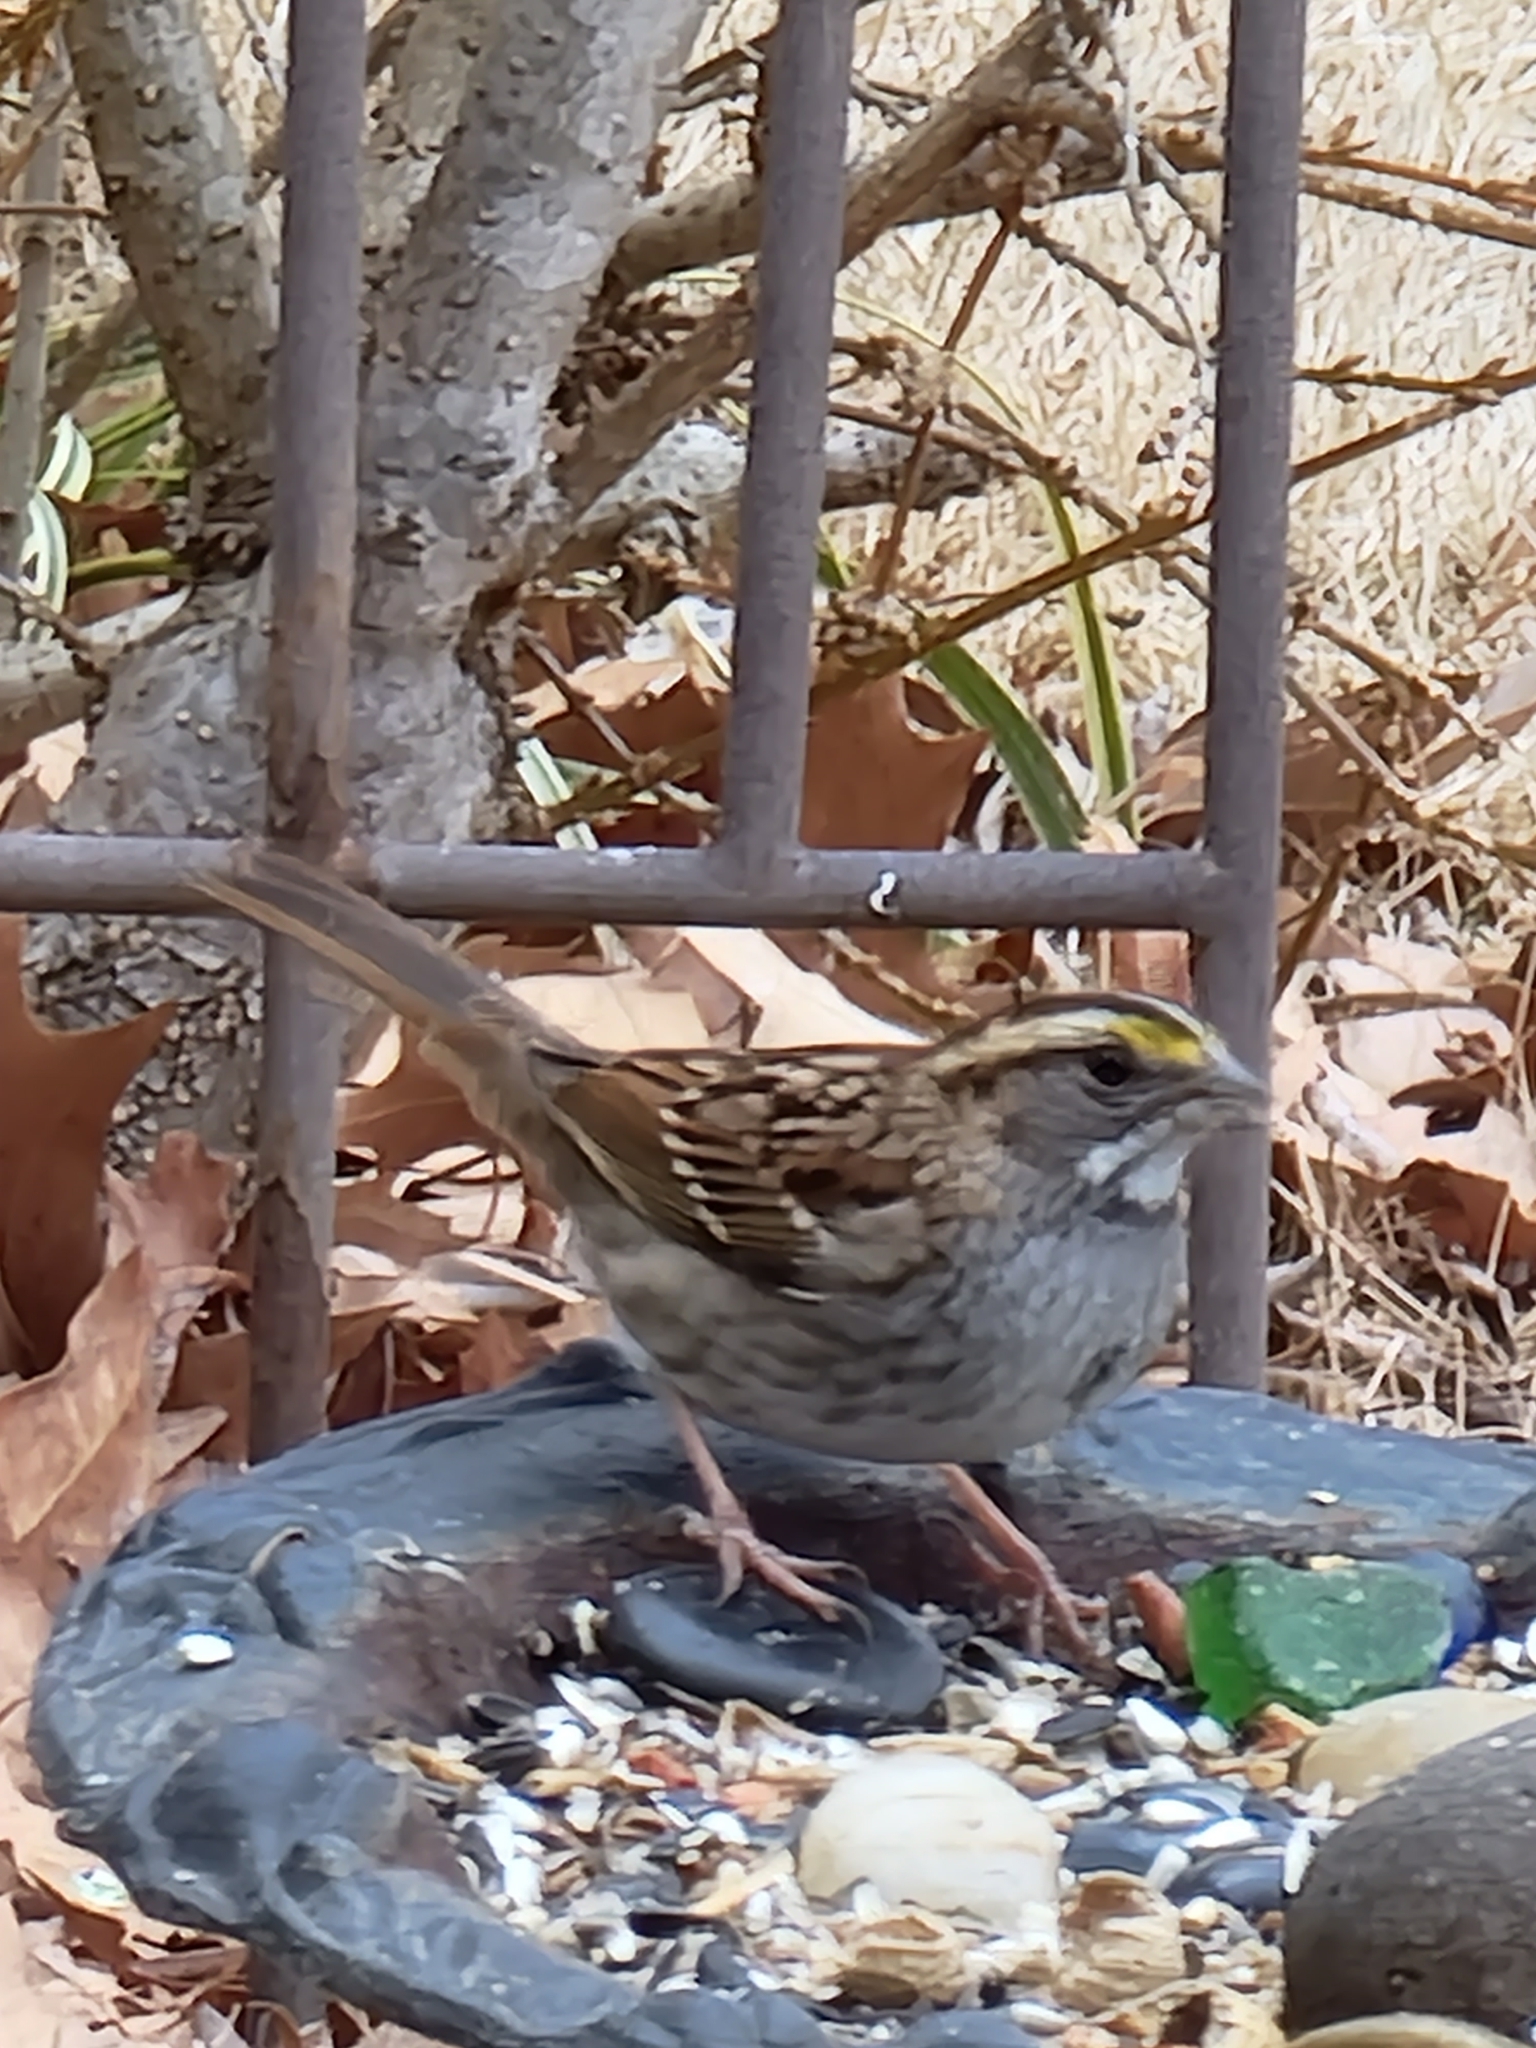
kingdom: Animalia
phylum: Chordata
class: Aves
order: Passeriformes
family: Passerellidae
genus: Zonotrichia
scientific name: Zonotrichia albicollis
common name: White-throated sparrow
